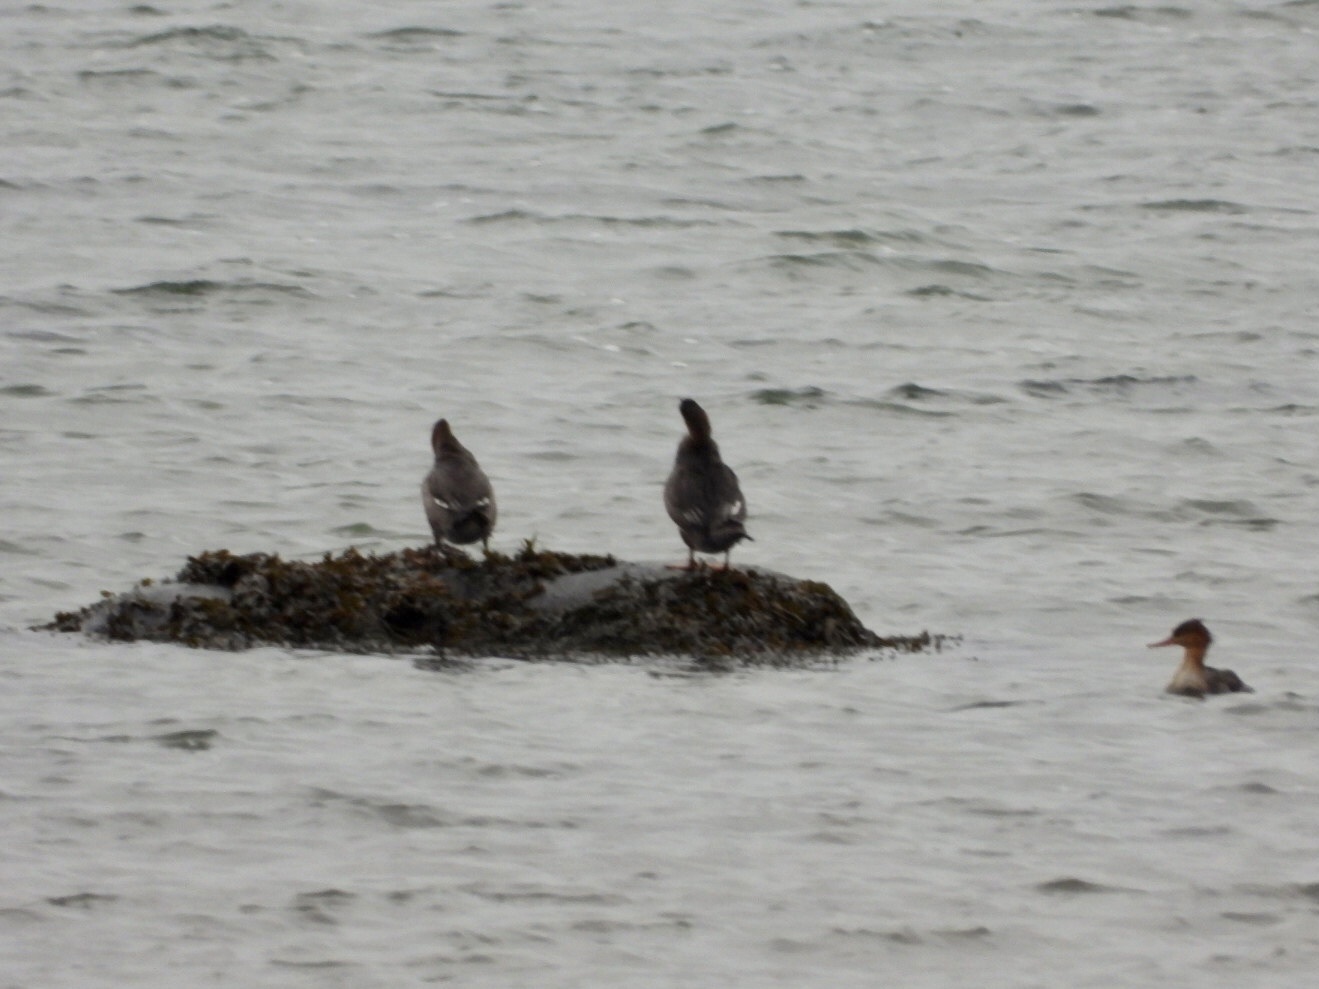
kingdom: Animalia
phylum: Chordata
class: Aves
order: Anseriformes
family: Anatidae
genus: Mergus
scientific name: Mergus serrator
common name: Red-breasted merganser
